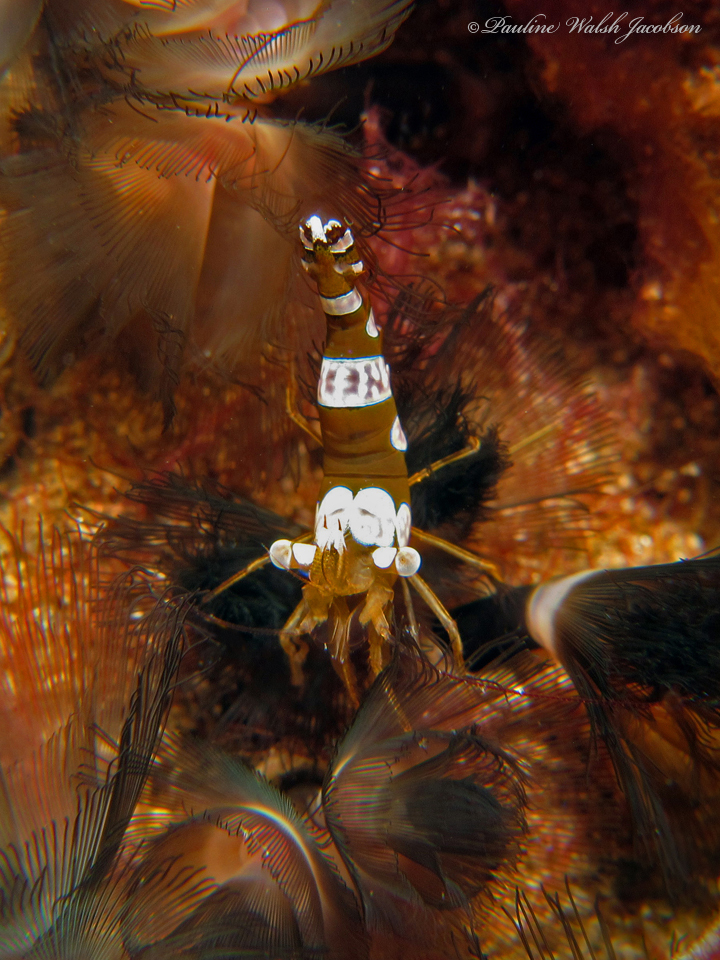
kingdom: Animalia
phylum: Arthropoda
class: Malacostraca
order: Decapoda
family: Thoridae
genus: Thor
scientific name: Thor amboinensis
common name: Squat anemone shrimp
